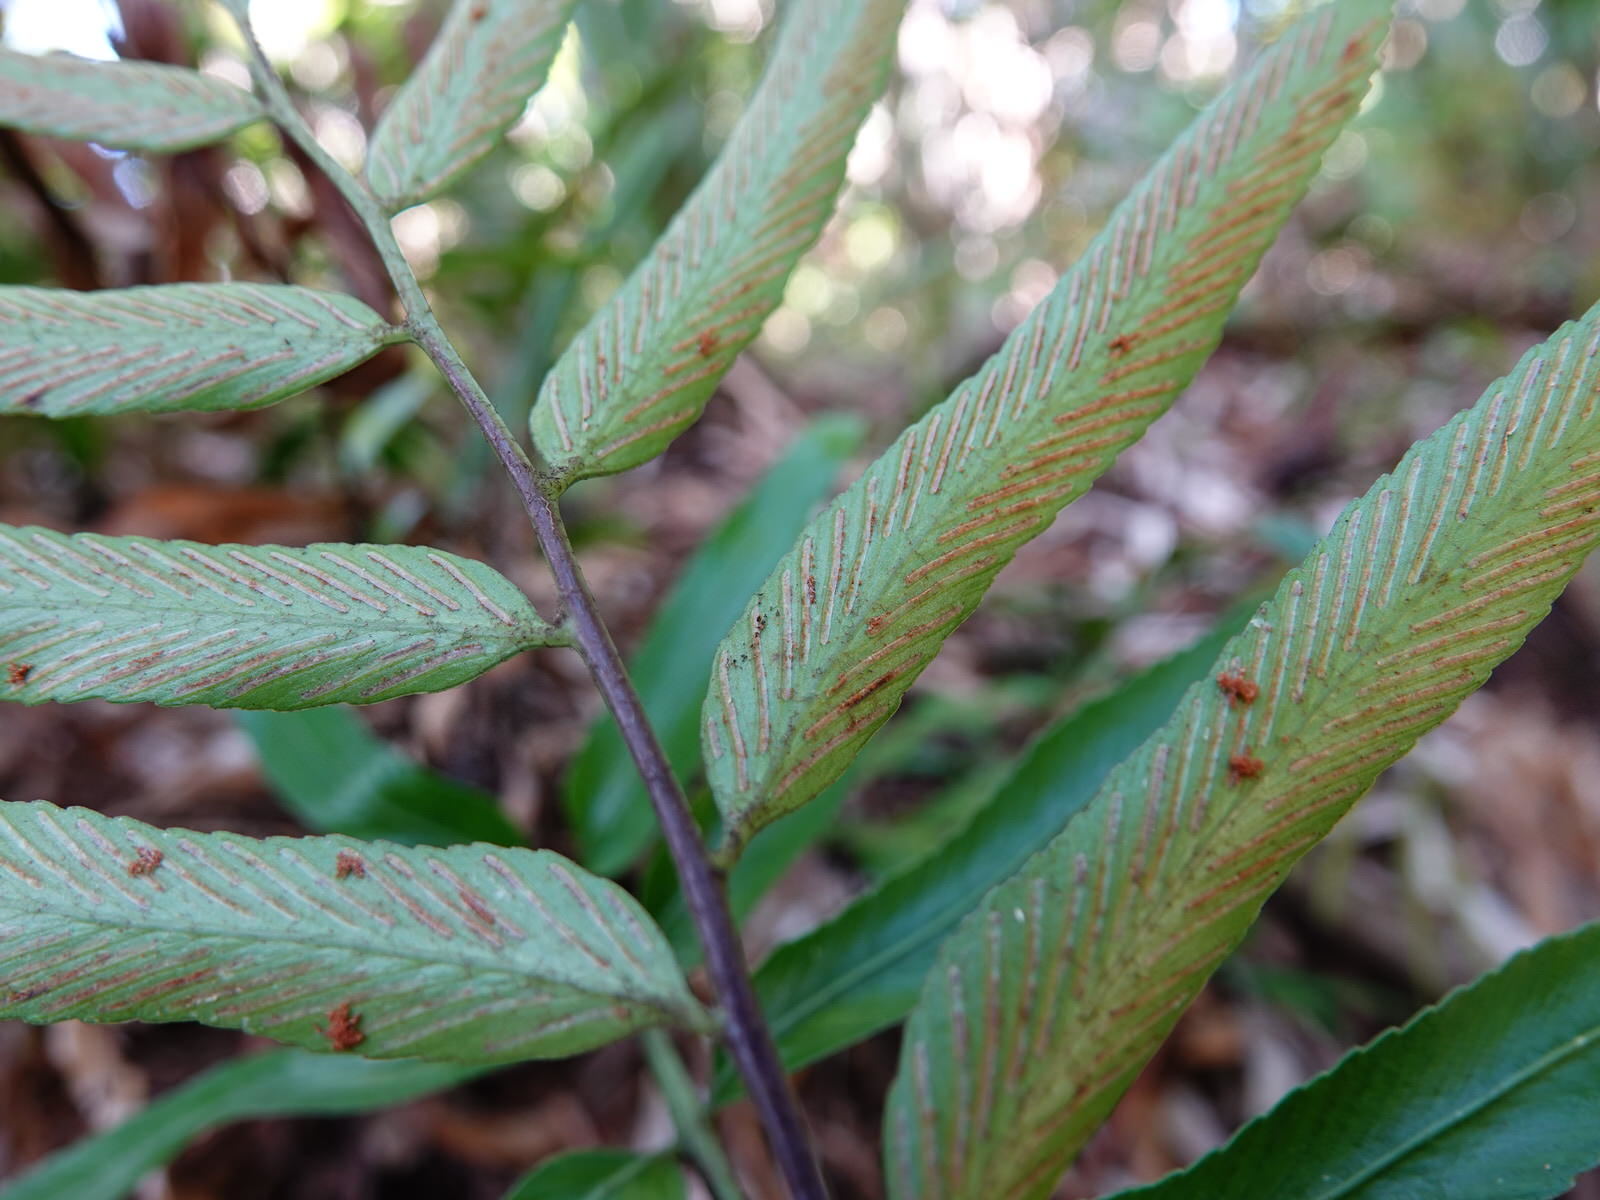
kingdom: Plantae
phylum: Tracheophyta
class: Polypodiopsida
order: Polypodiales
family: Aspleniaceae
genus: Asplenium
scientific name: Asplenium oblongifolium
